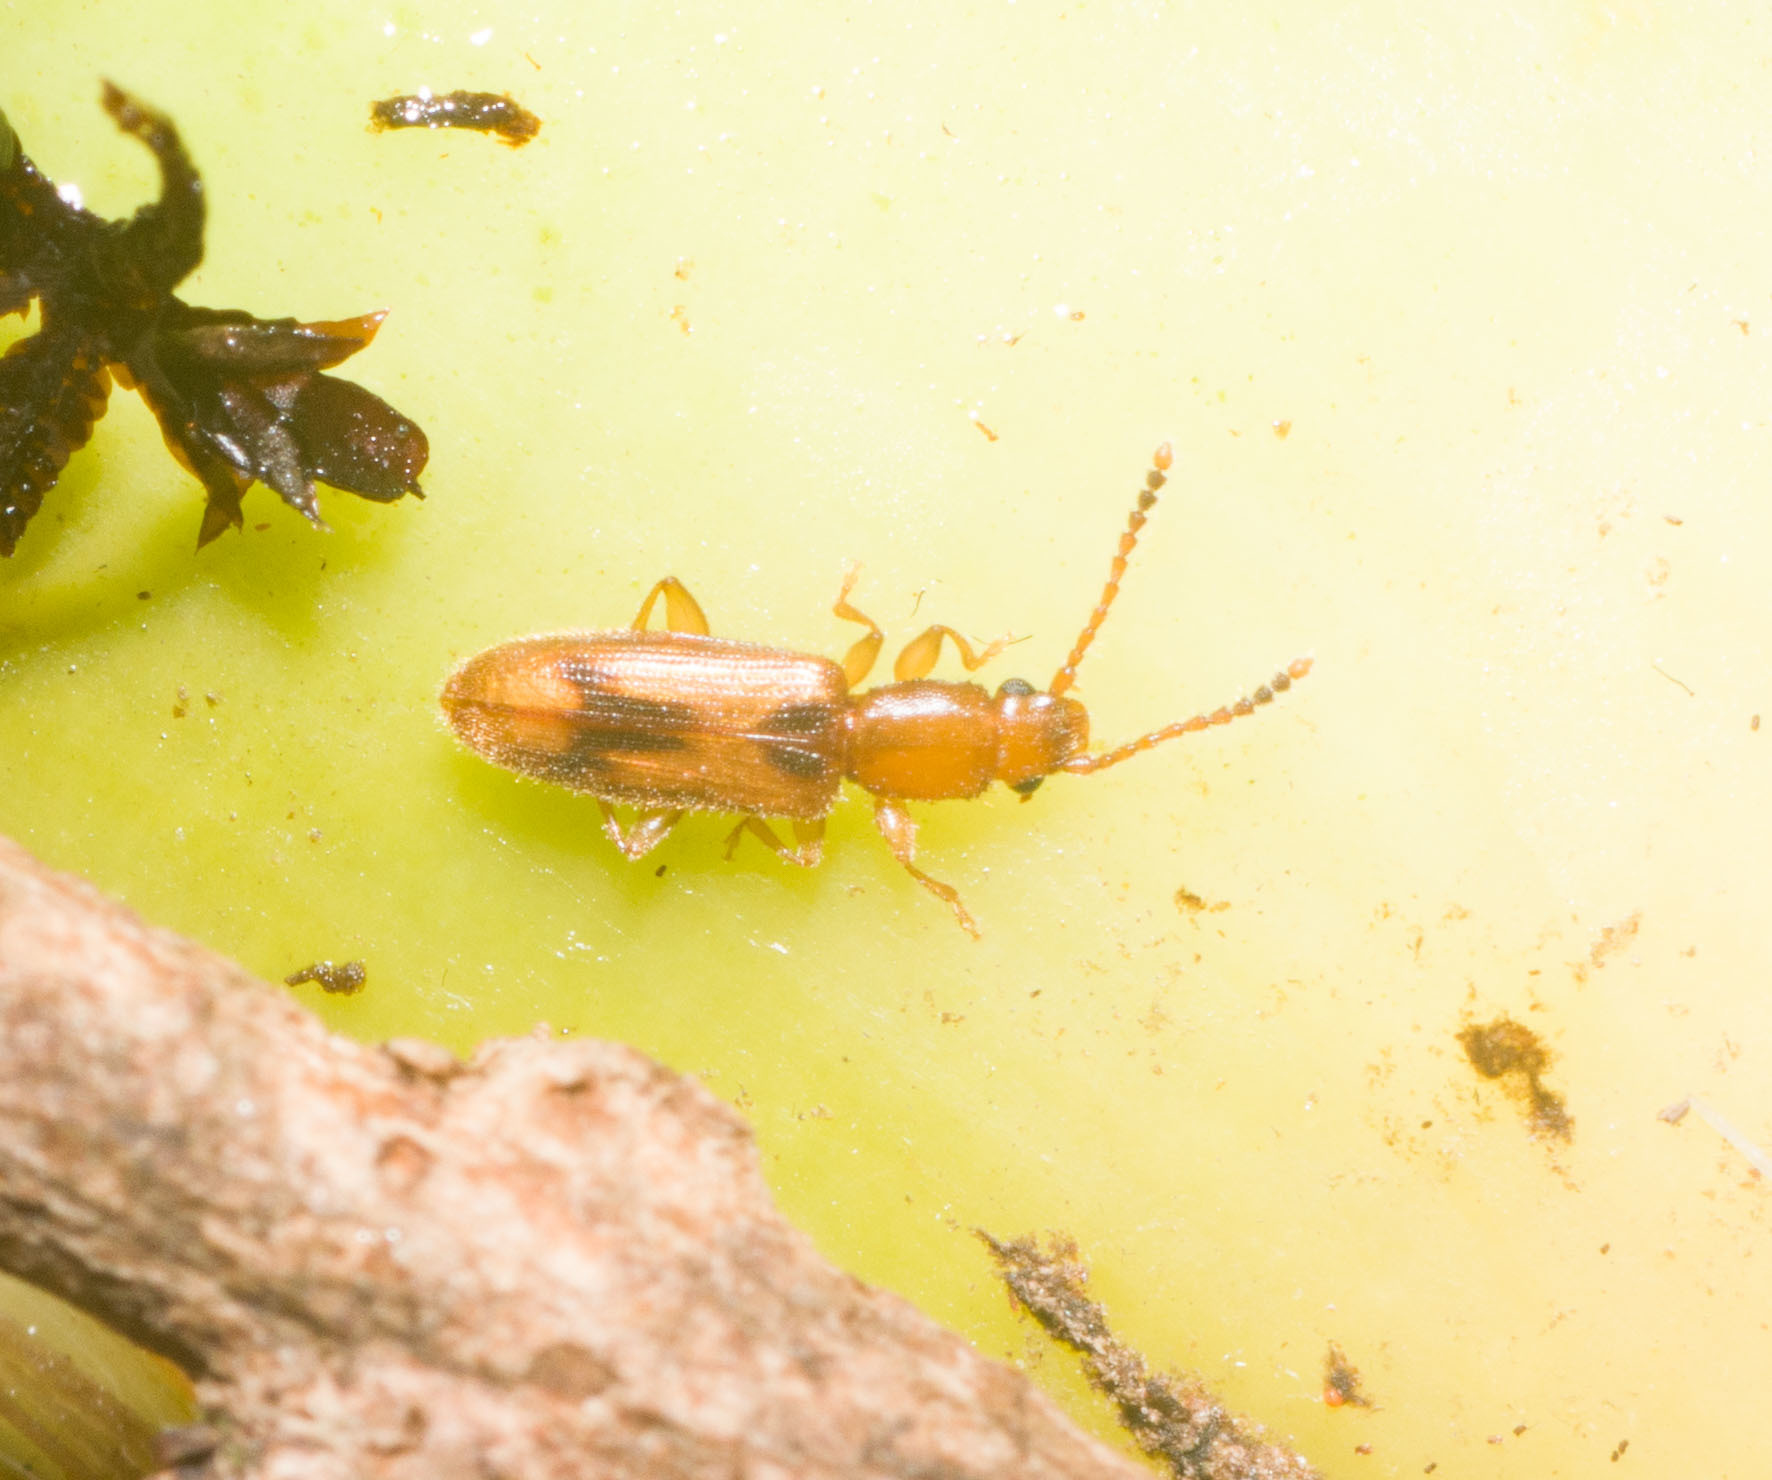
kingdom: Animalia
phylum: Arthropoda
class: Insecta
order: Coleoptera
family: Silvanidae
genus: Cryptamorpha
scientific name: Cryptamorpha desjardinsi
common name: Cryptamorpha
